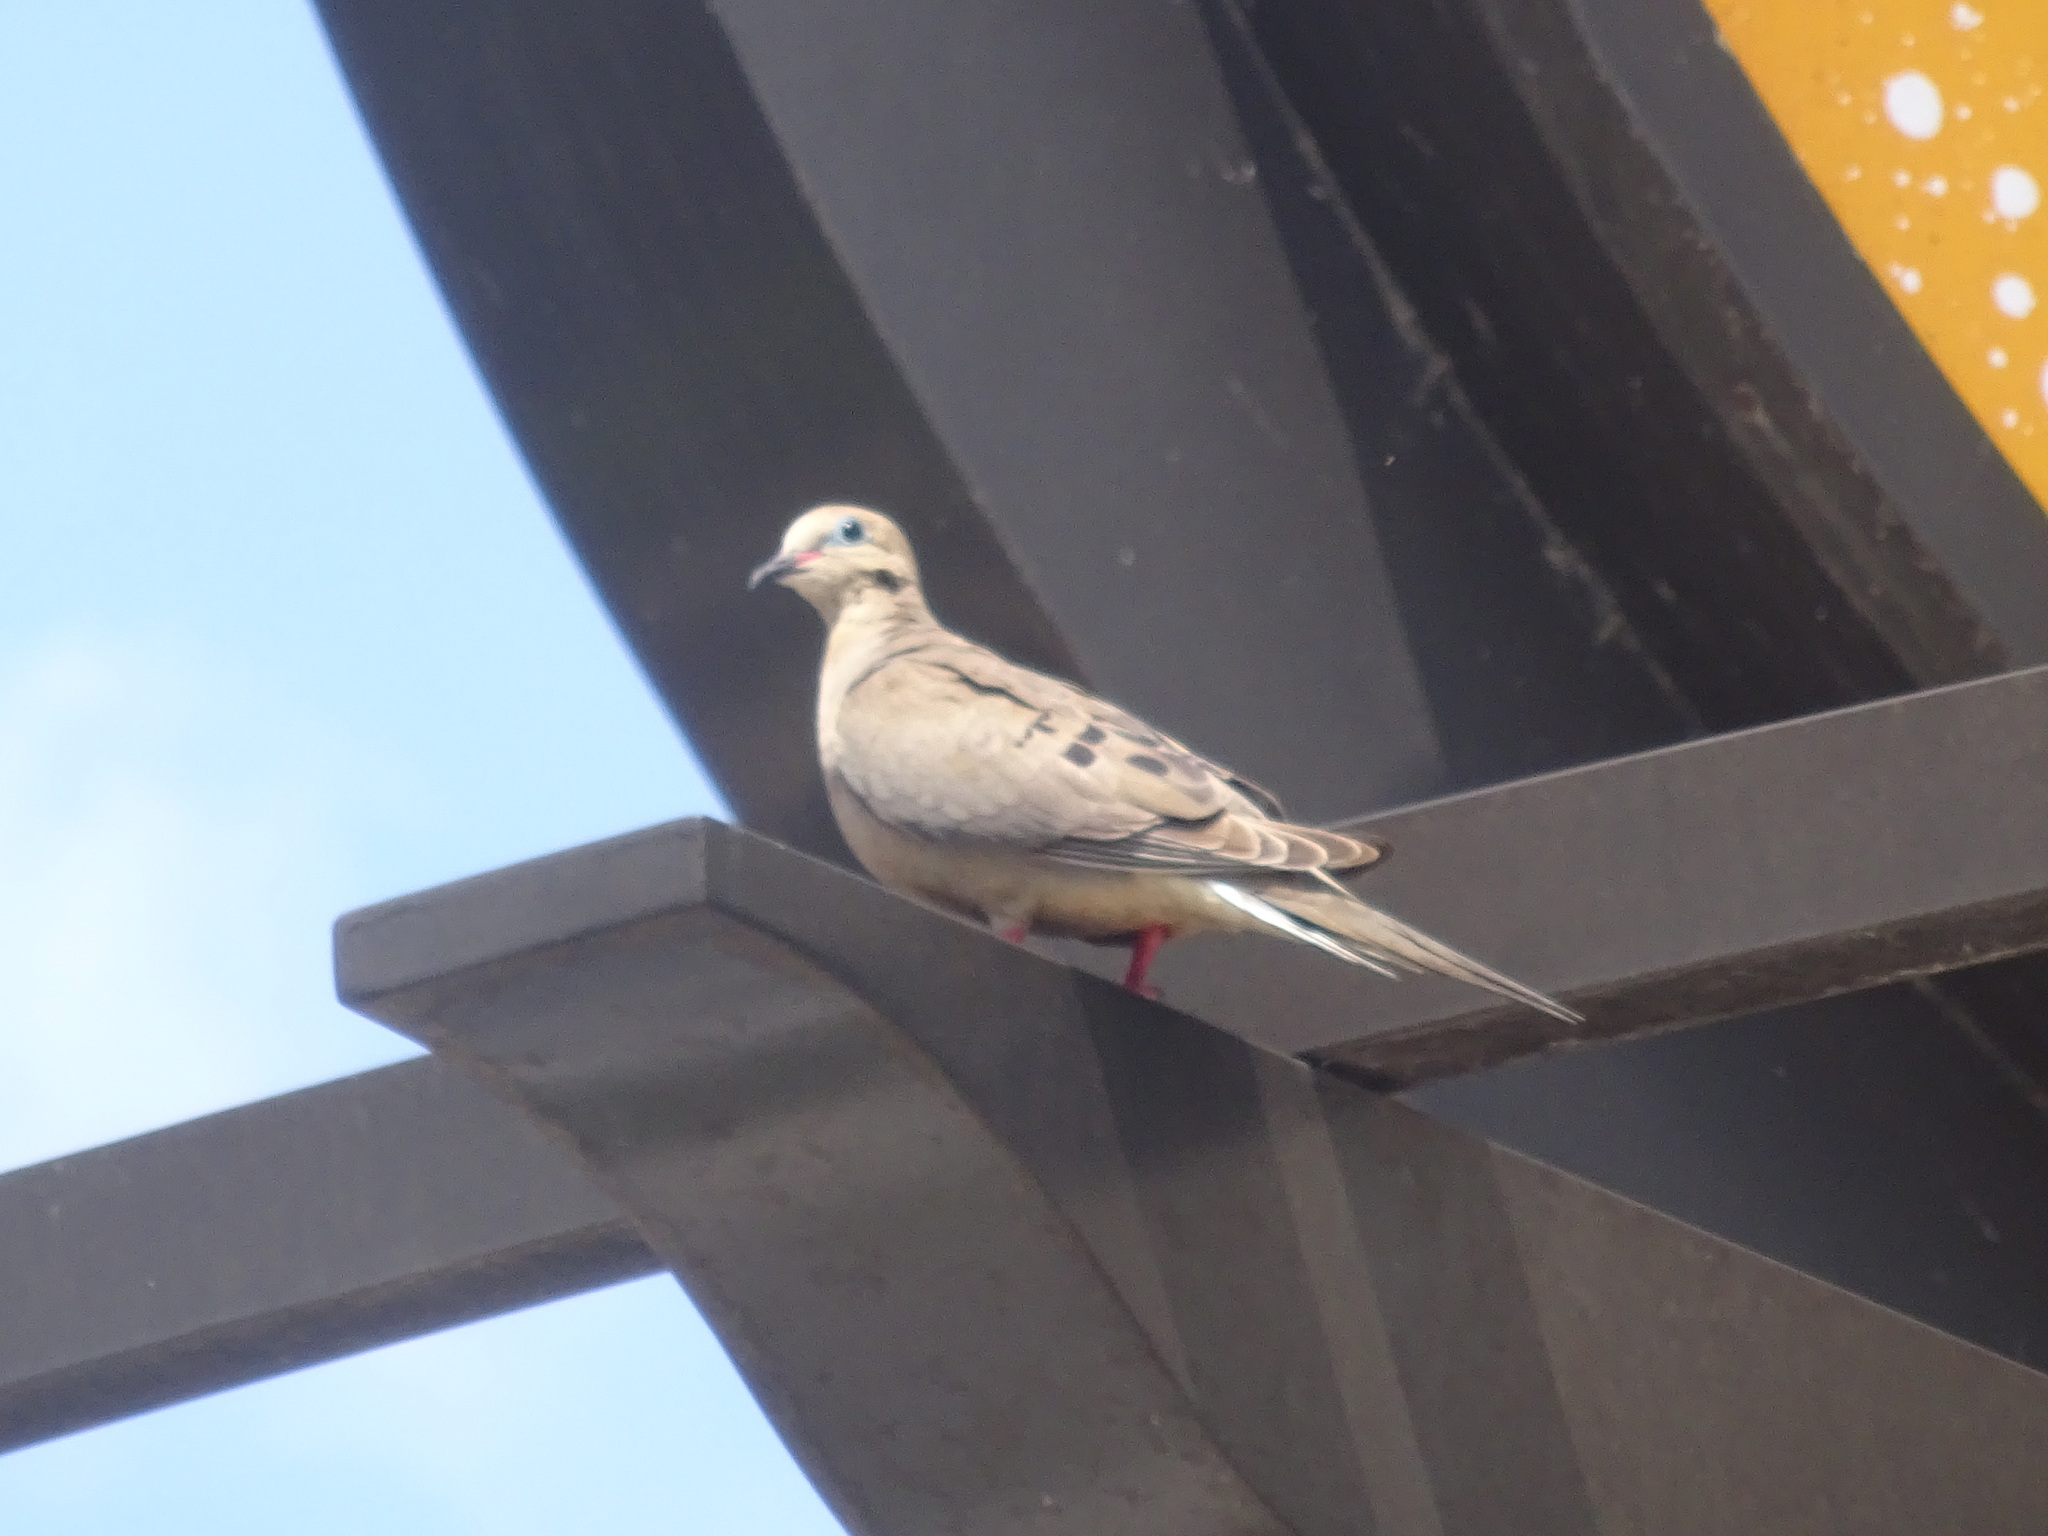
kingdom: Animalia
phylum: Chordata
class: Aves
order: Columbiformes
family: Columbidae
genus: Zenaida
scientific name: Zenaida macroura
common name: Mourning dove
